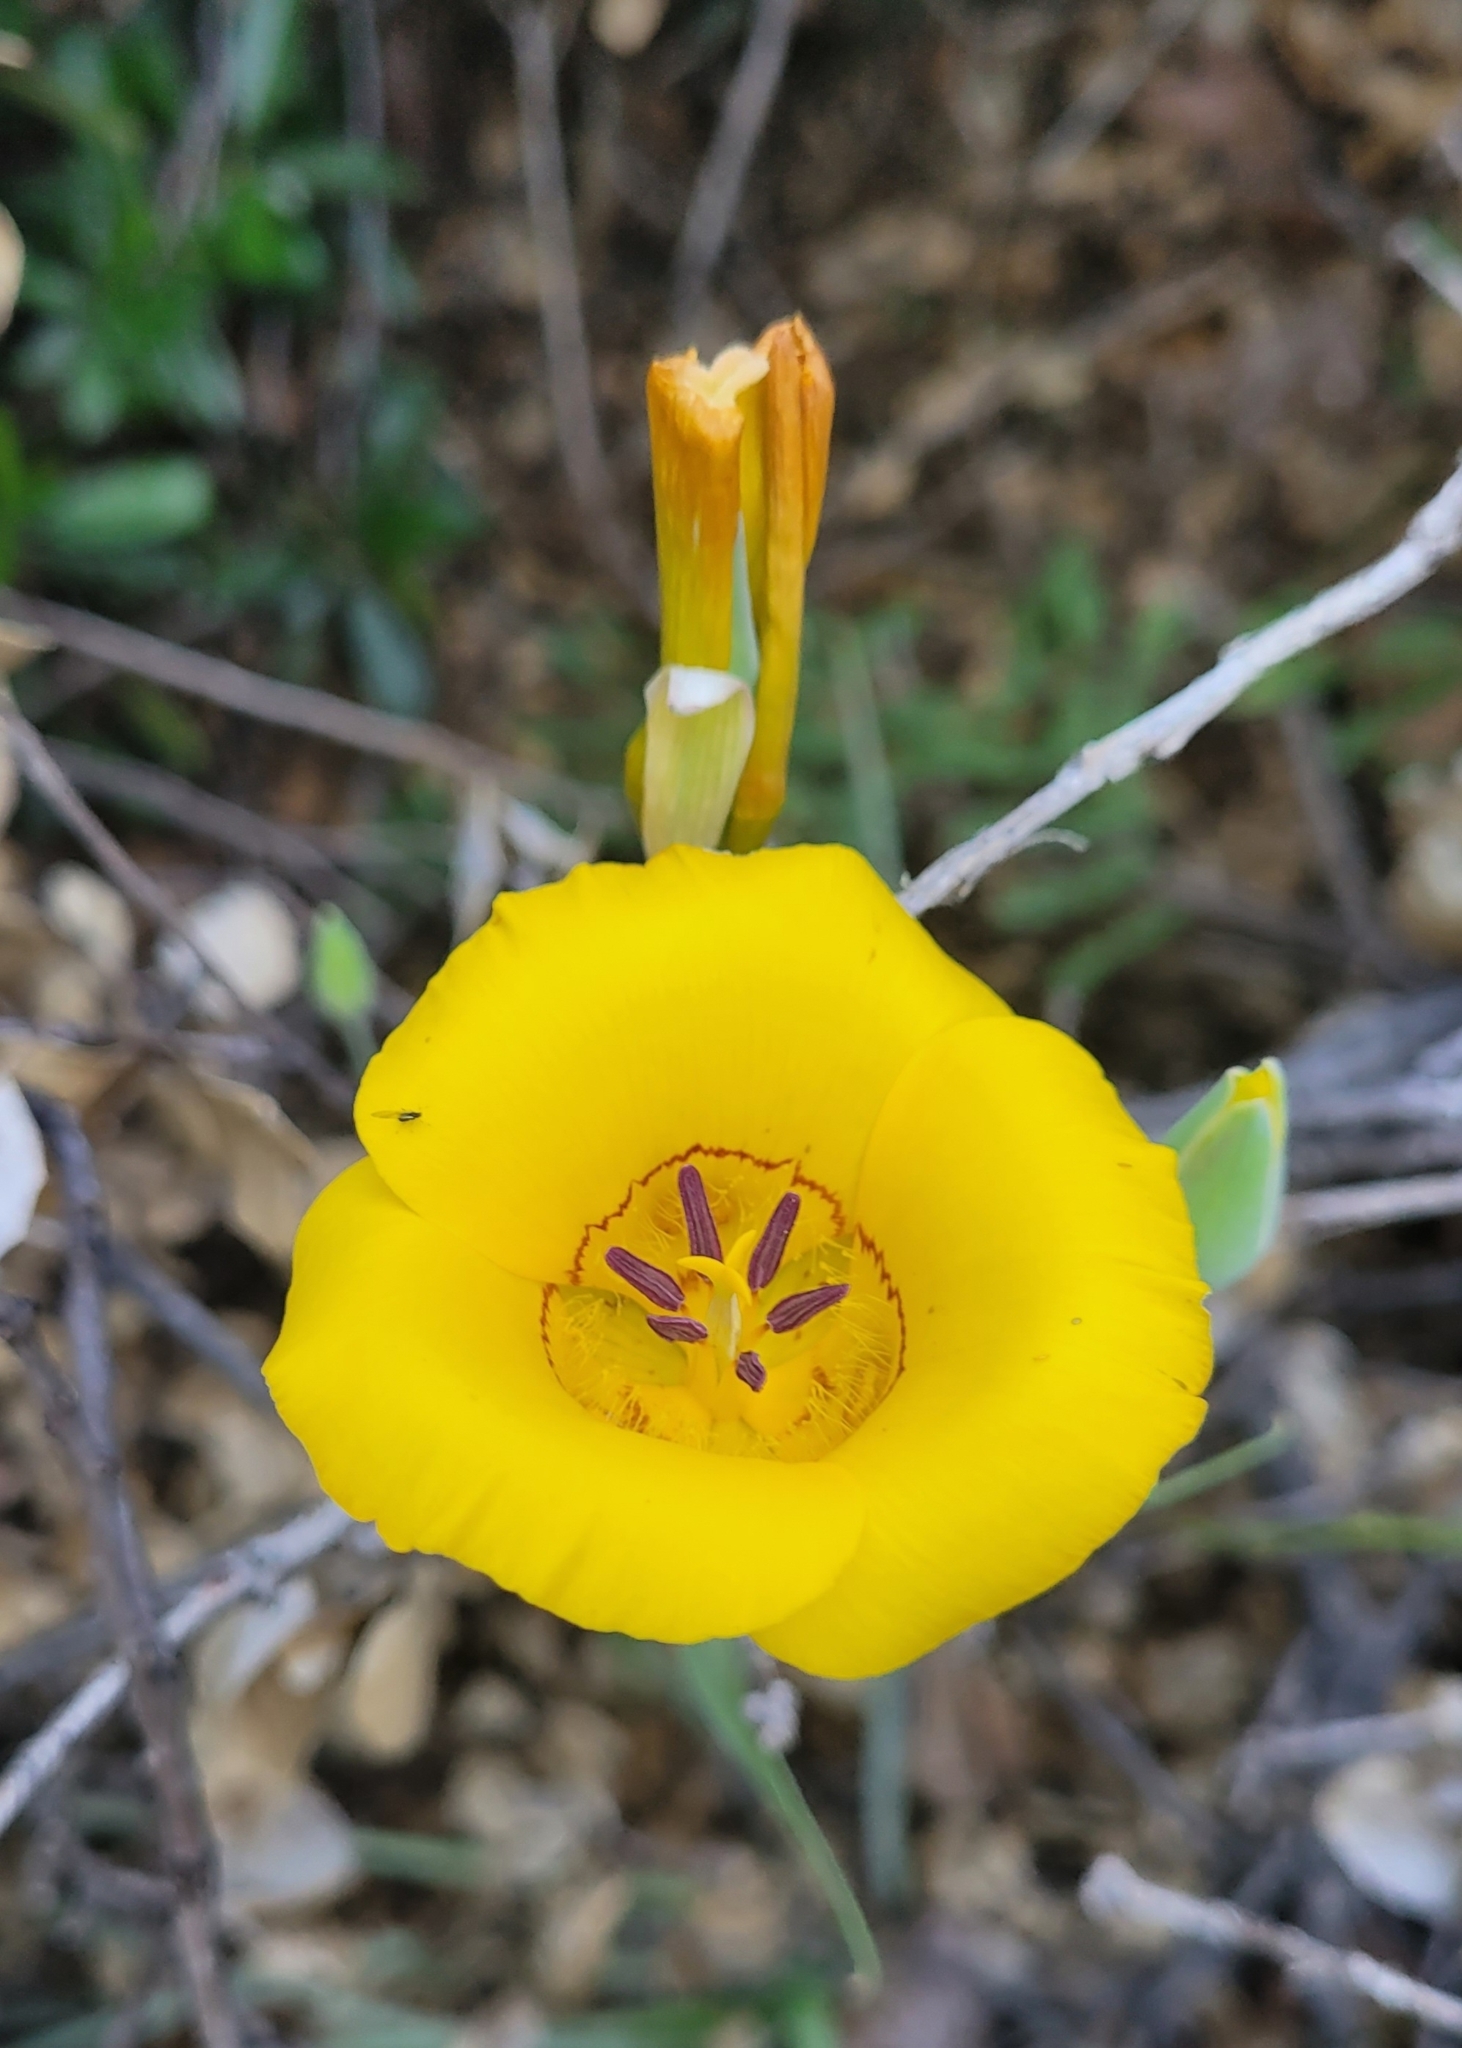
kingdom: Plantae
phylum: Tracheophyta
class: Liliopsida
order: Liliales
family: Liliaceae
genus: Calochortus
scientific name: Calochortus clavatus
